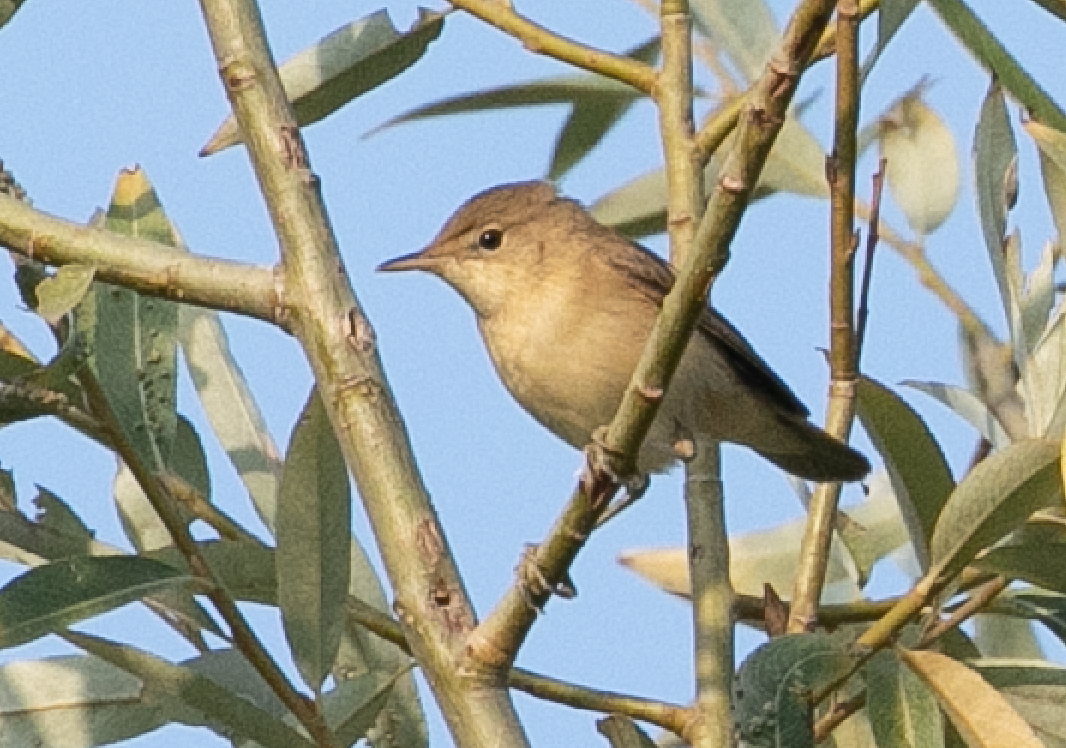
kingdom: Animalia
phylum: Chordata
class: Aves
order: Passeriformes
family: Acrocephalidae
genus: Acrocephalus
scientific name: Acrocephalus scirpaceus
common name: Eurasian reed warbler
